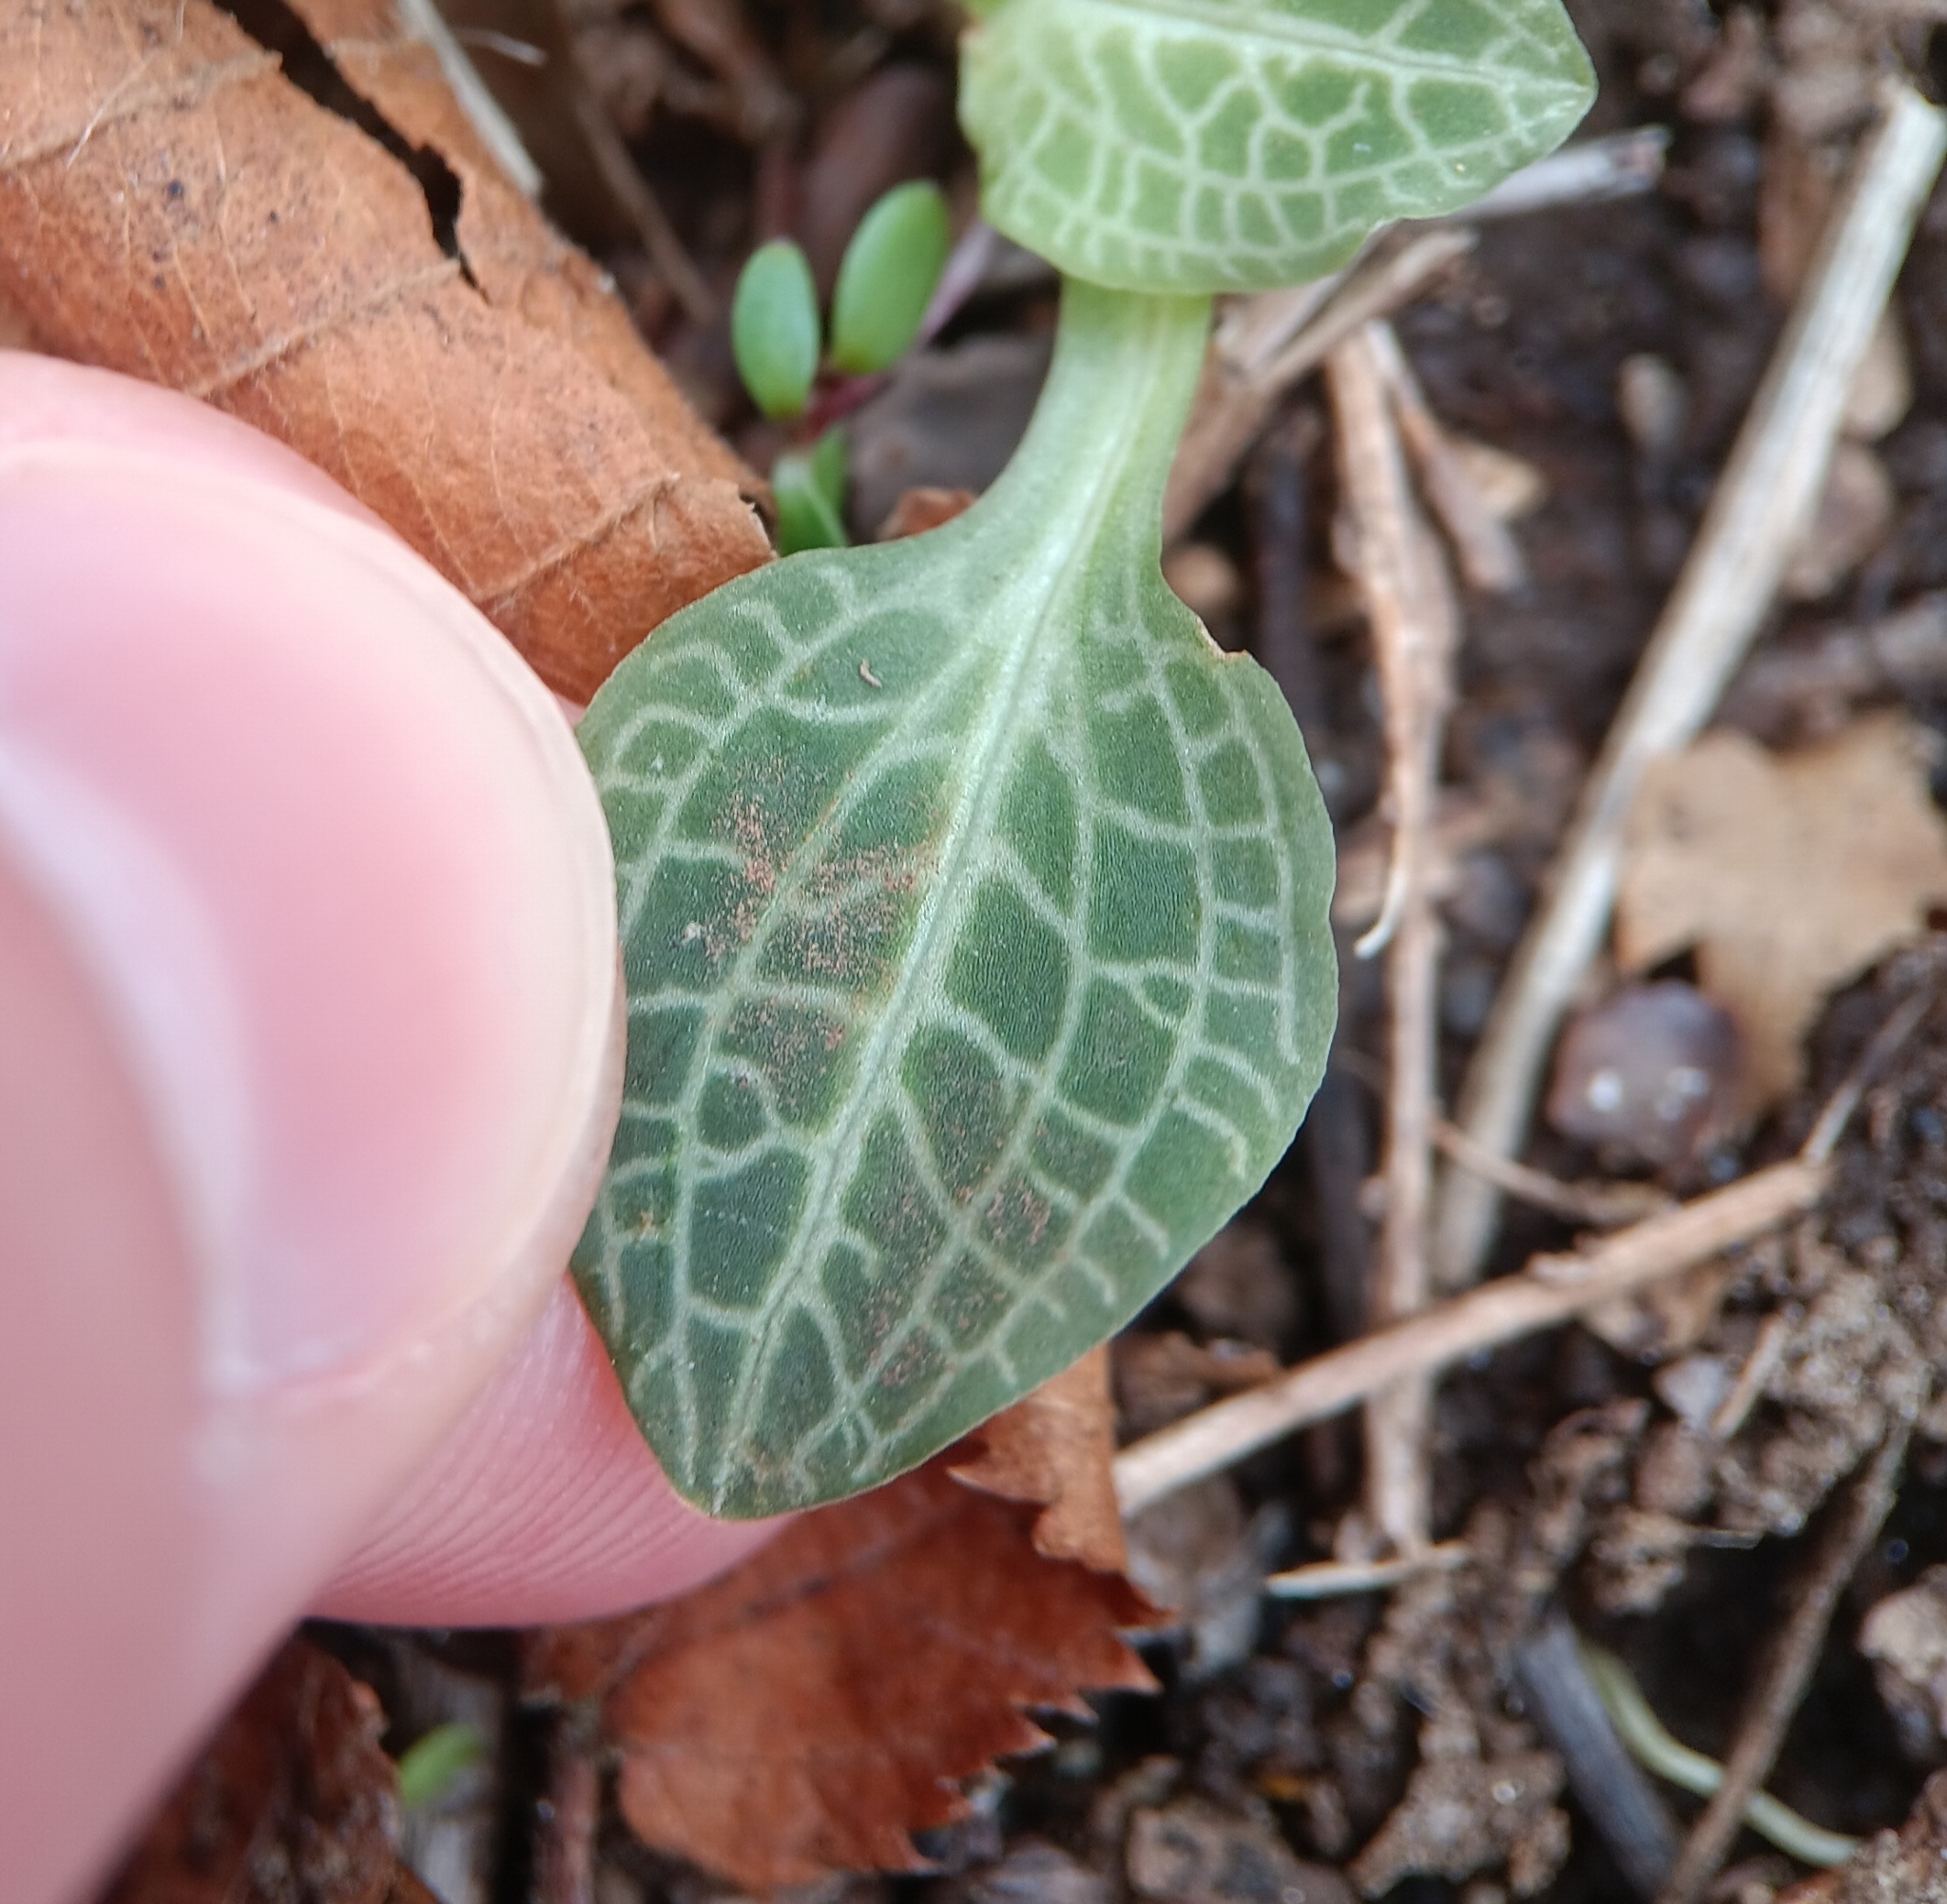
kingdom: Plantae
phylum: Tracheophyta
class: Liliopsida
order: Asparagales
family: Orchidaceae
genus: Goodyera
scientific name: Goodyera pubescens
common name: Downy rattlesnake-plantain
